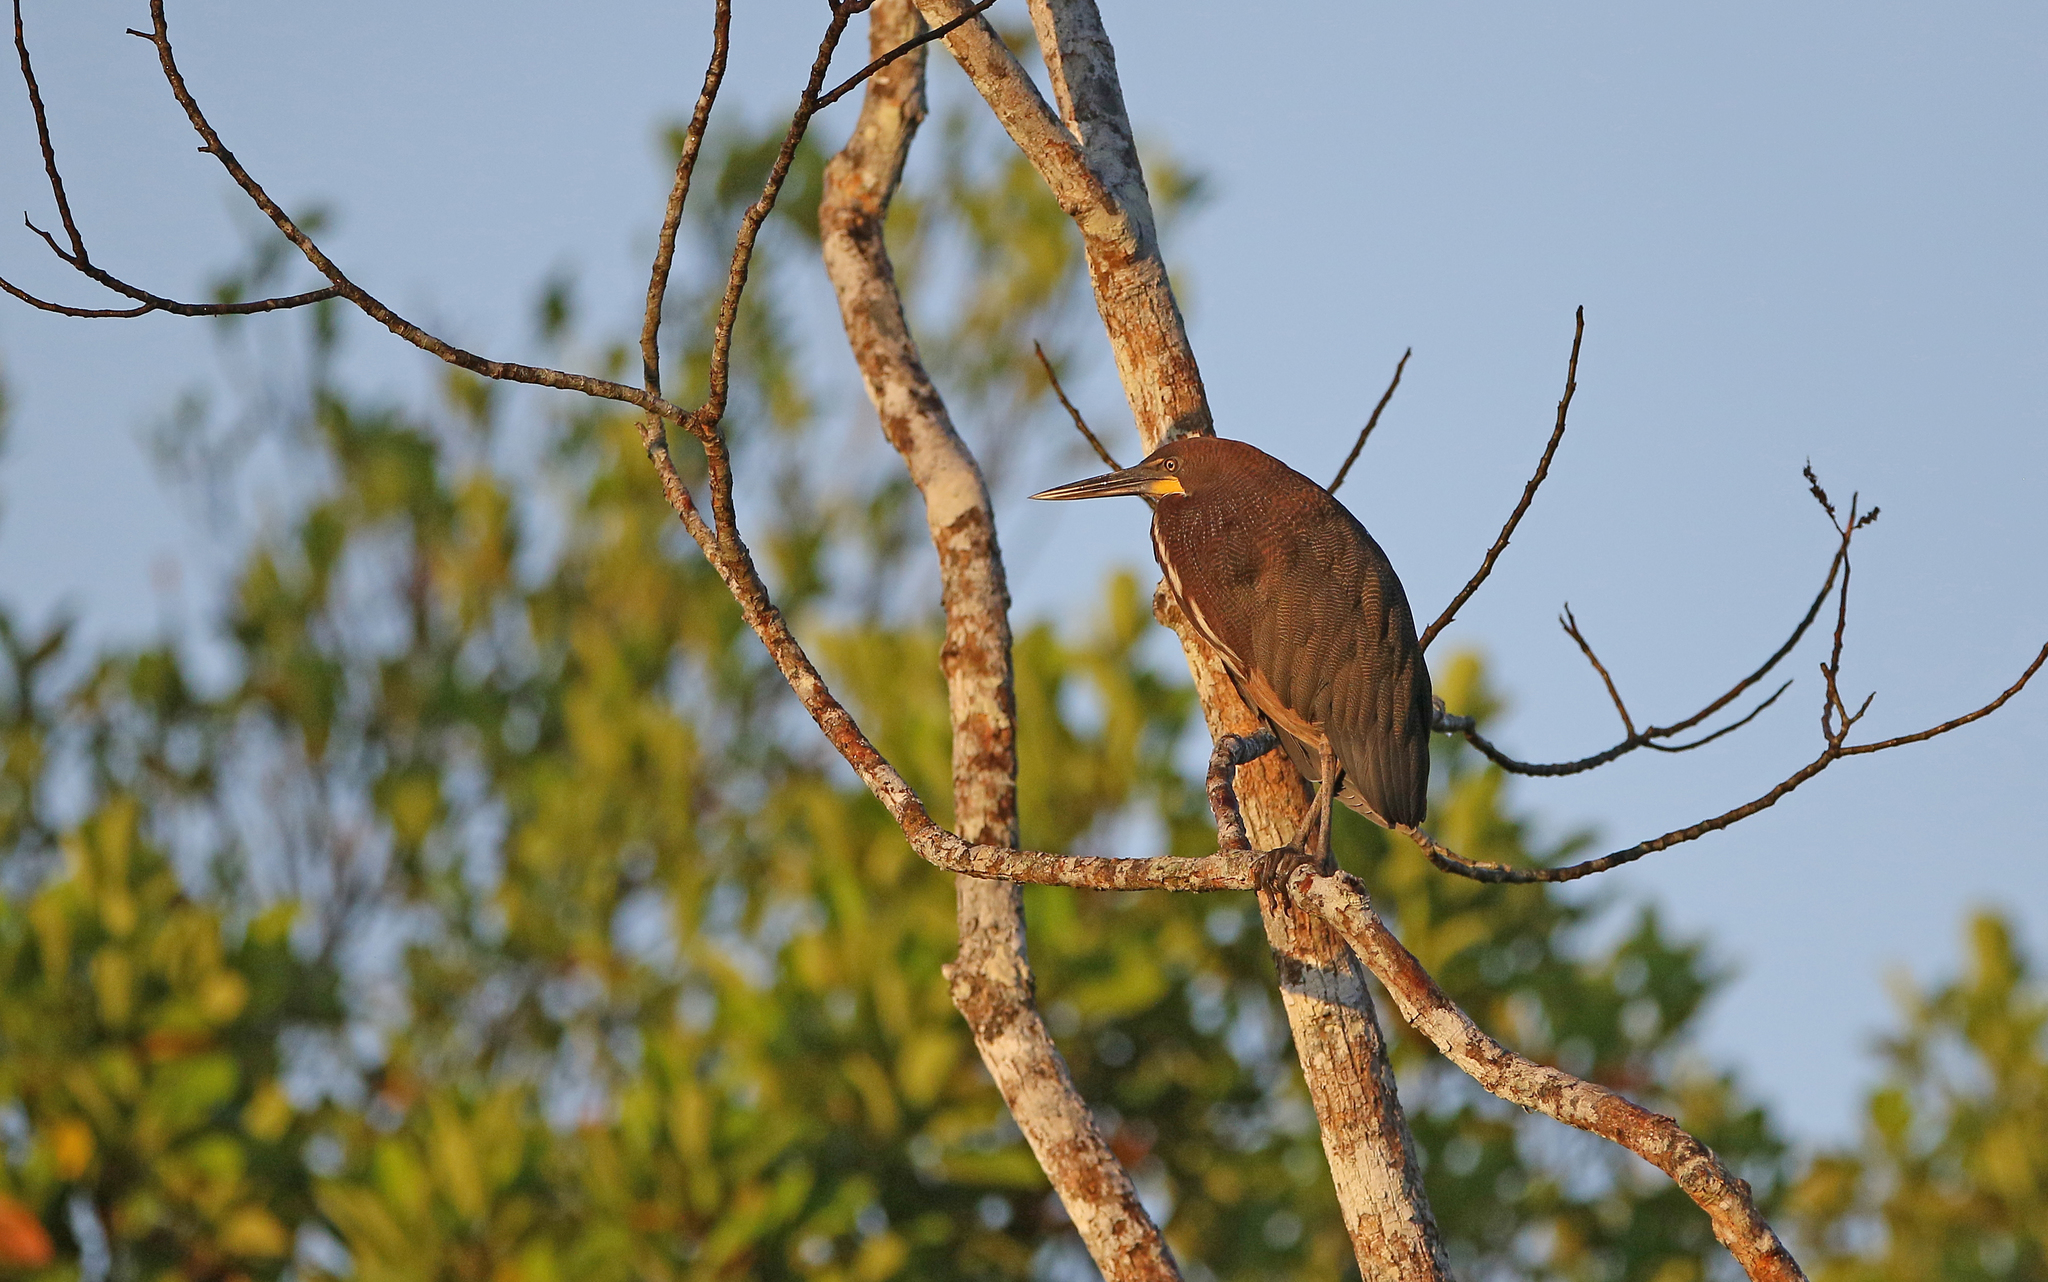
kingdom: Animalia
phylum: Chordata
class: Aves
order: Pelecaniformes
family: Ardeidae
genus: Tigrisoma
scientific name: Tigrisoma lineatum
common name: Rufescent tiger-heron
